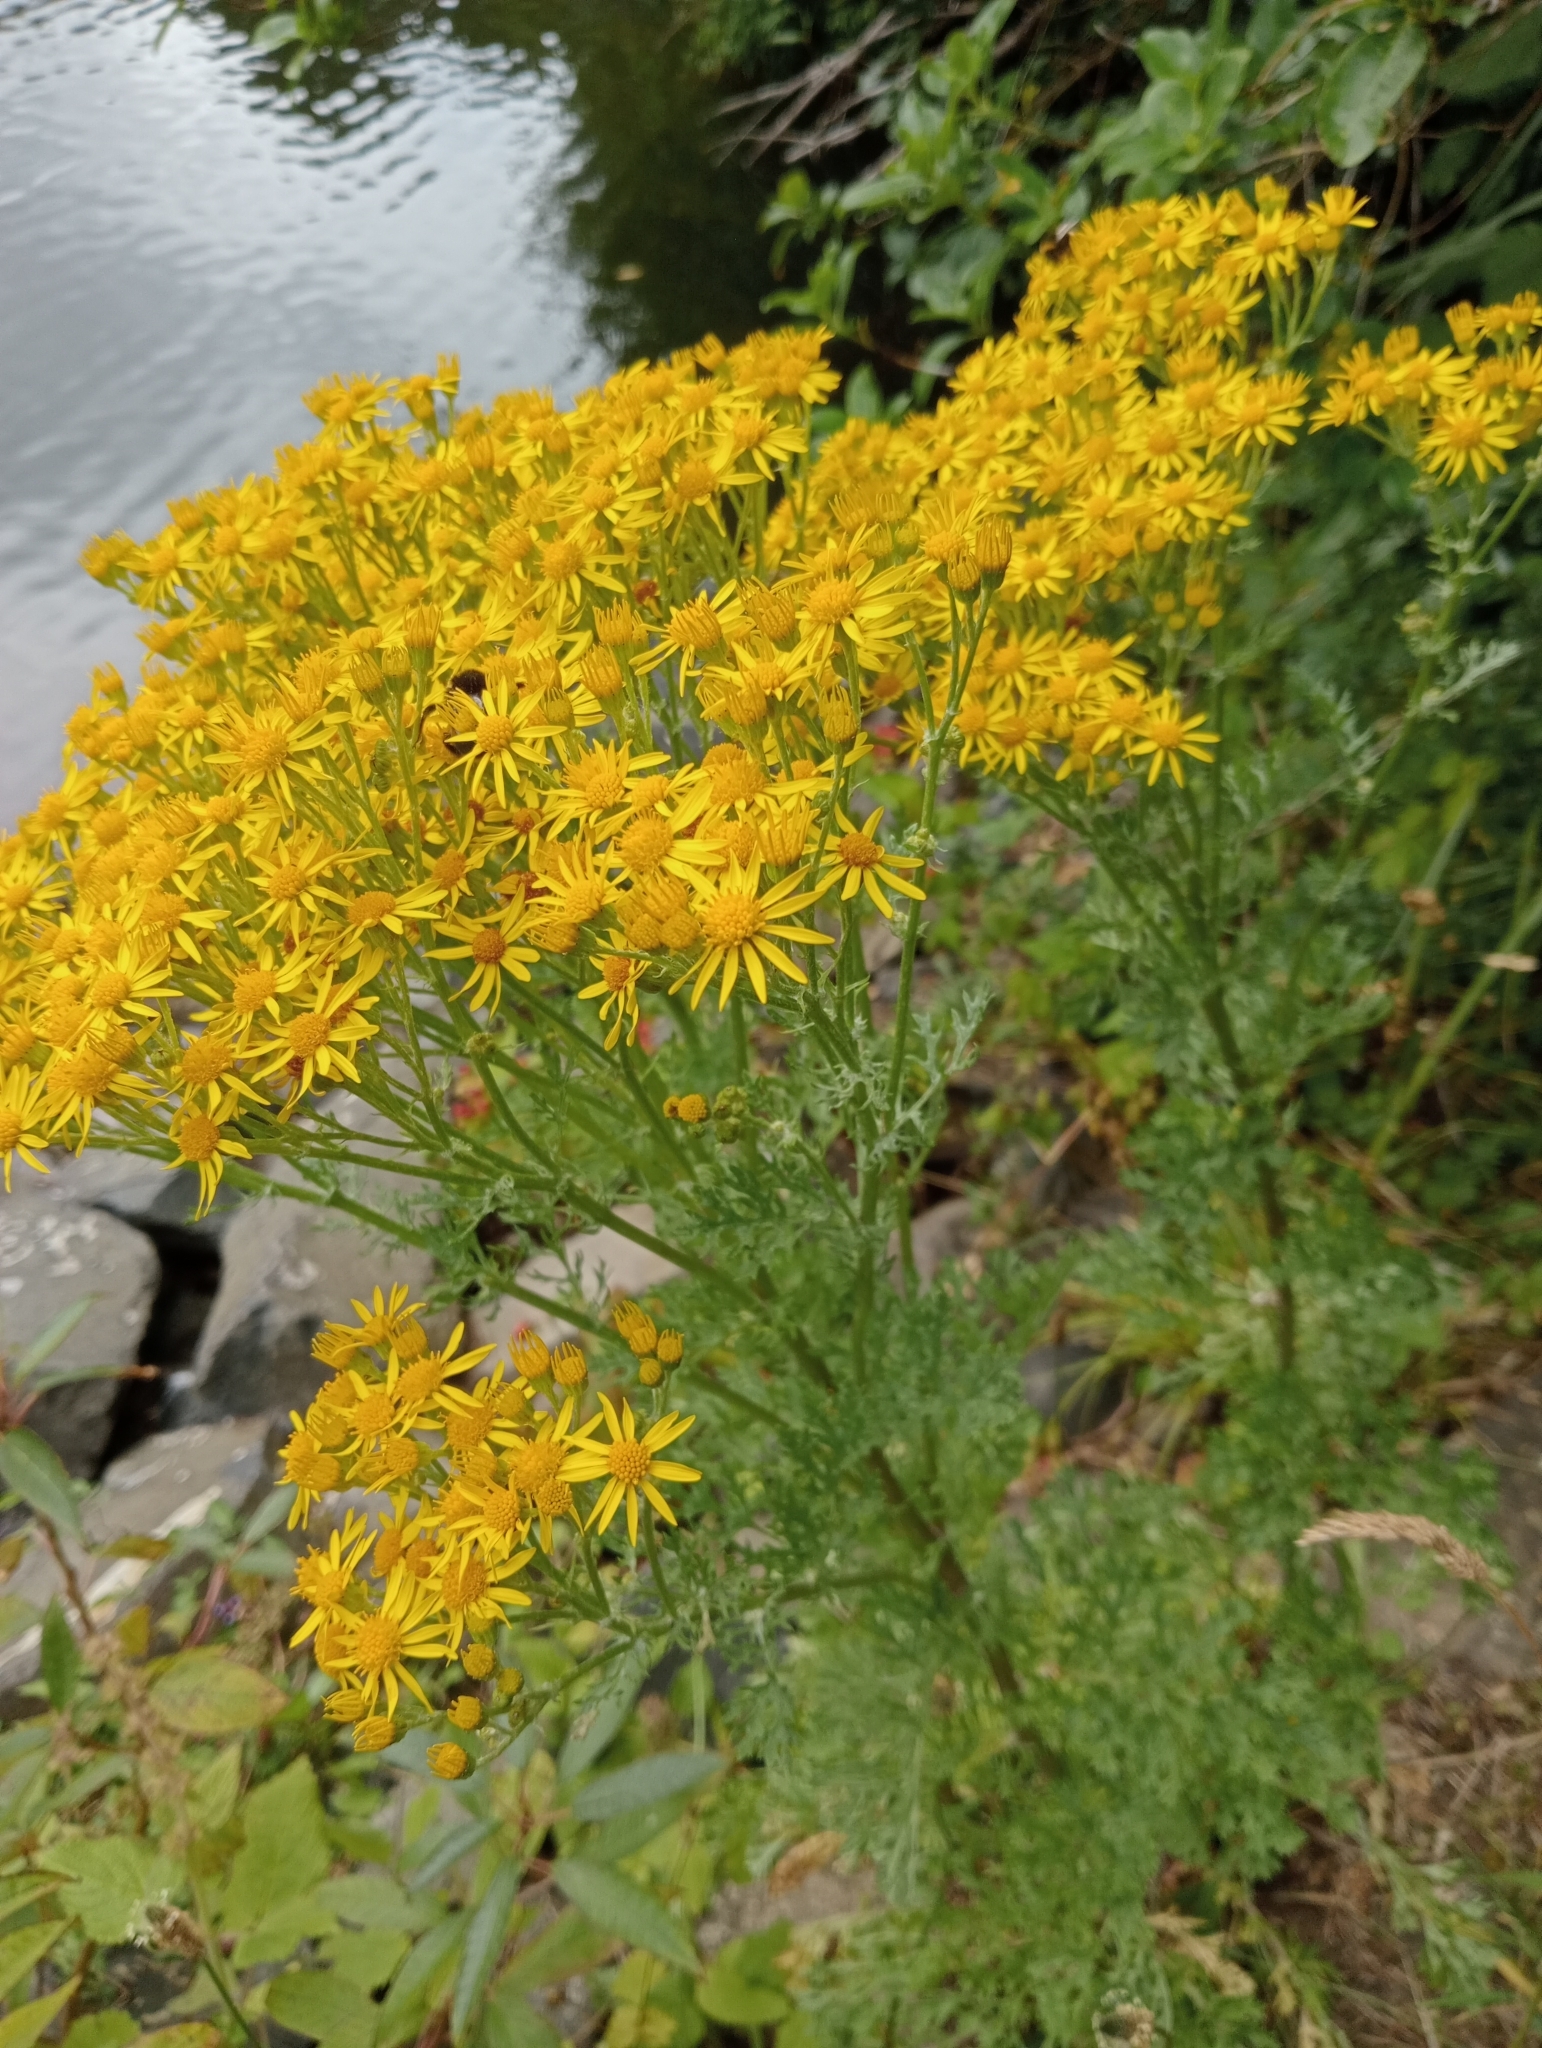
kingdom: Plantae
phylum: Tracheophyta
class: Magnoliopsida
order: Asterales
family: Asteraceae
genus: Jacobaea
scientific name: Jacobaea vulgaris
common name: Stinking willie
